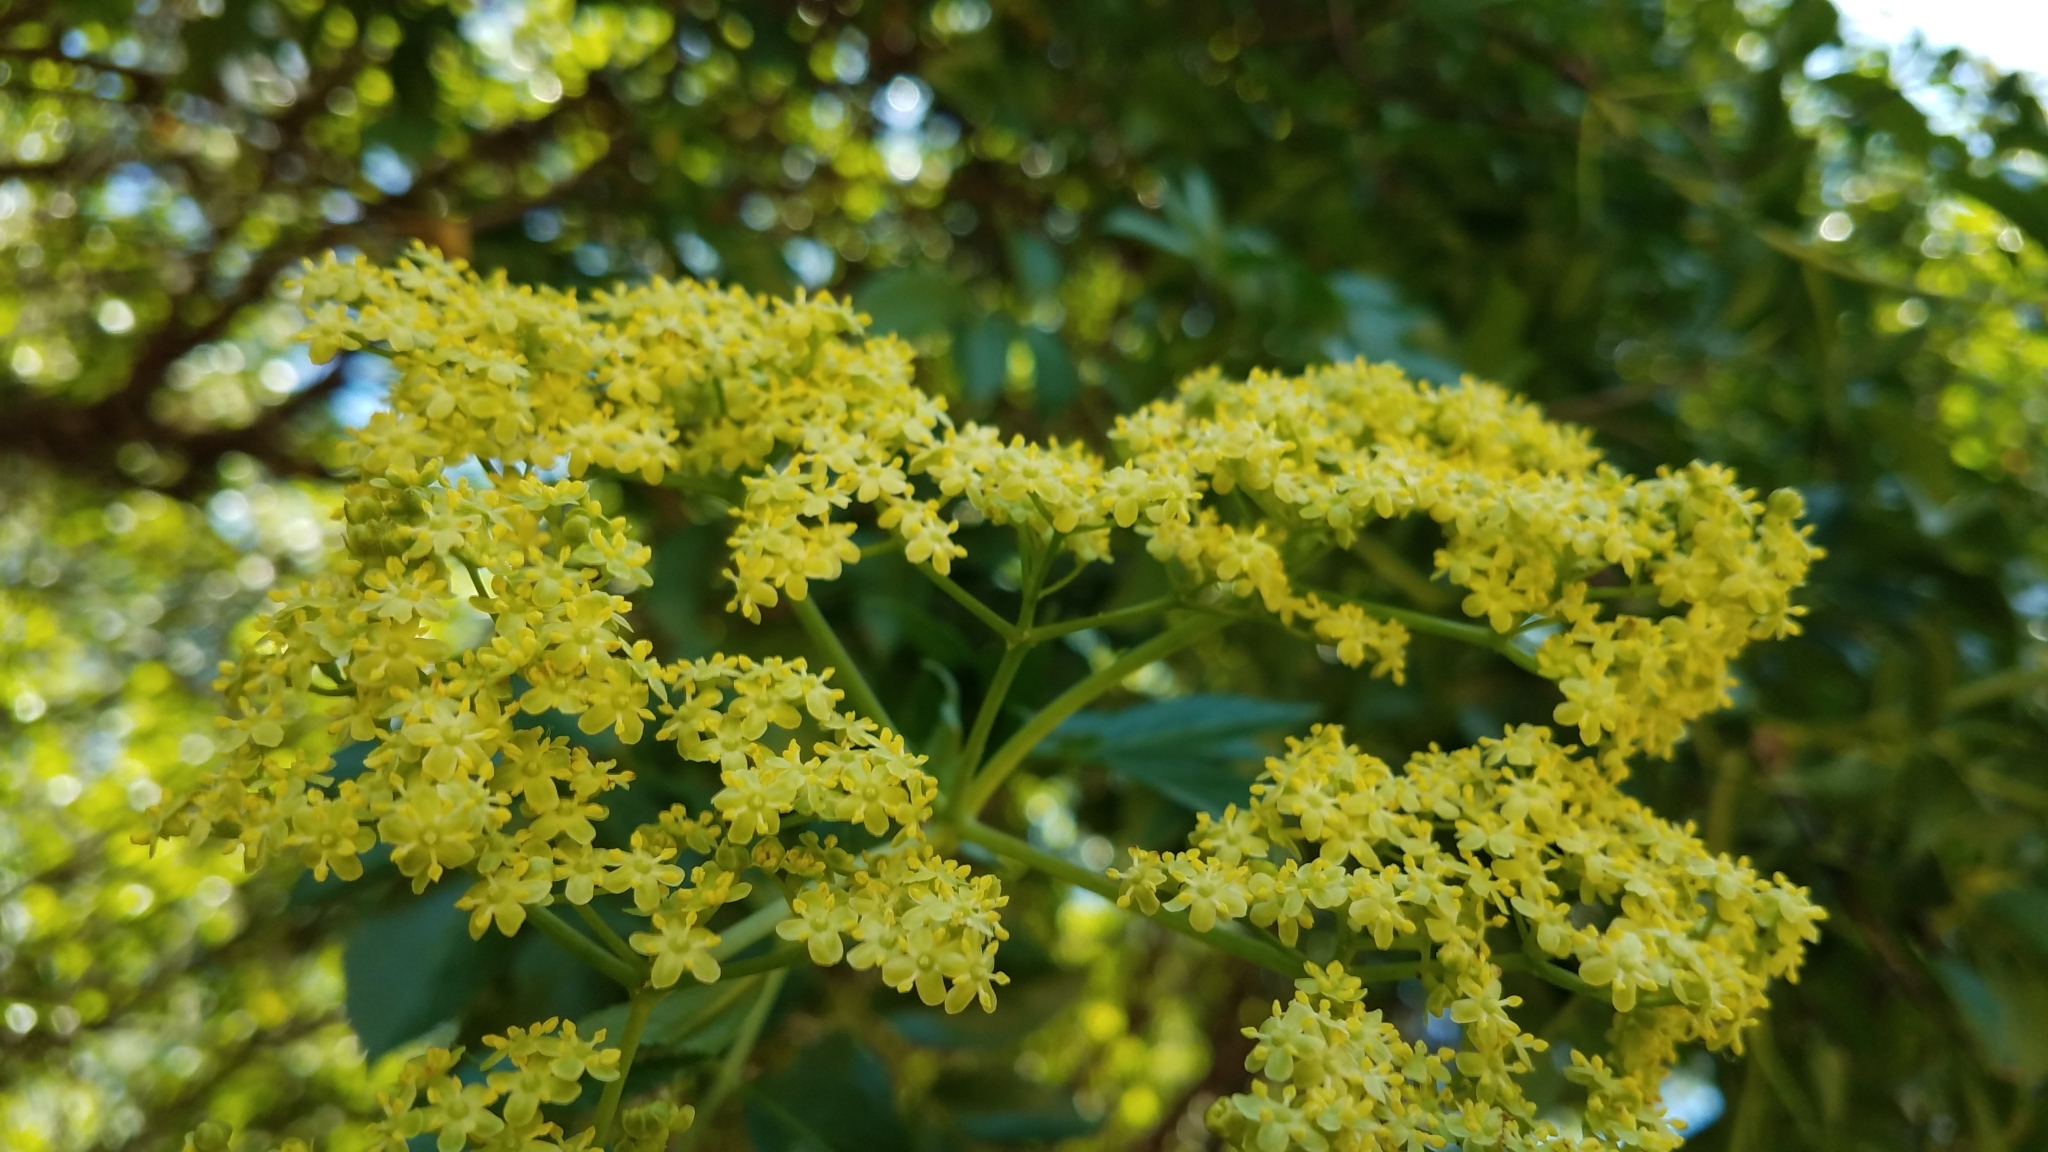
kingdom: Plantae
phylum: Tracheophyta
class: Magnoliopsida
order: Dipsacales
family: Viburnaceae
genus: Sambucus
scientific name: Sambucus cerulea
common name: Blue elder
